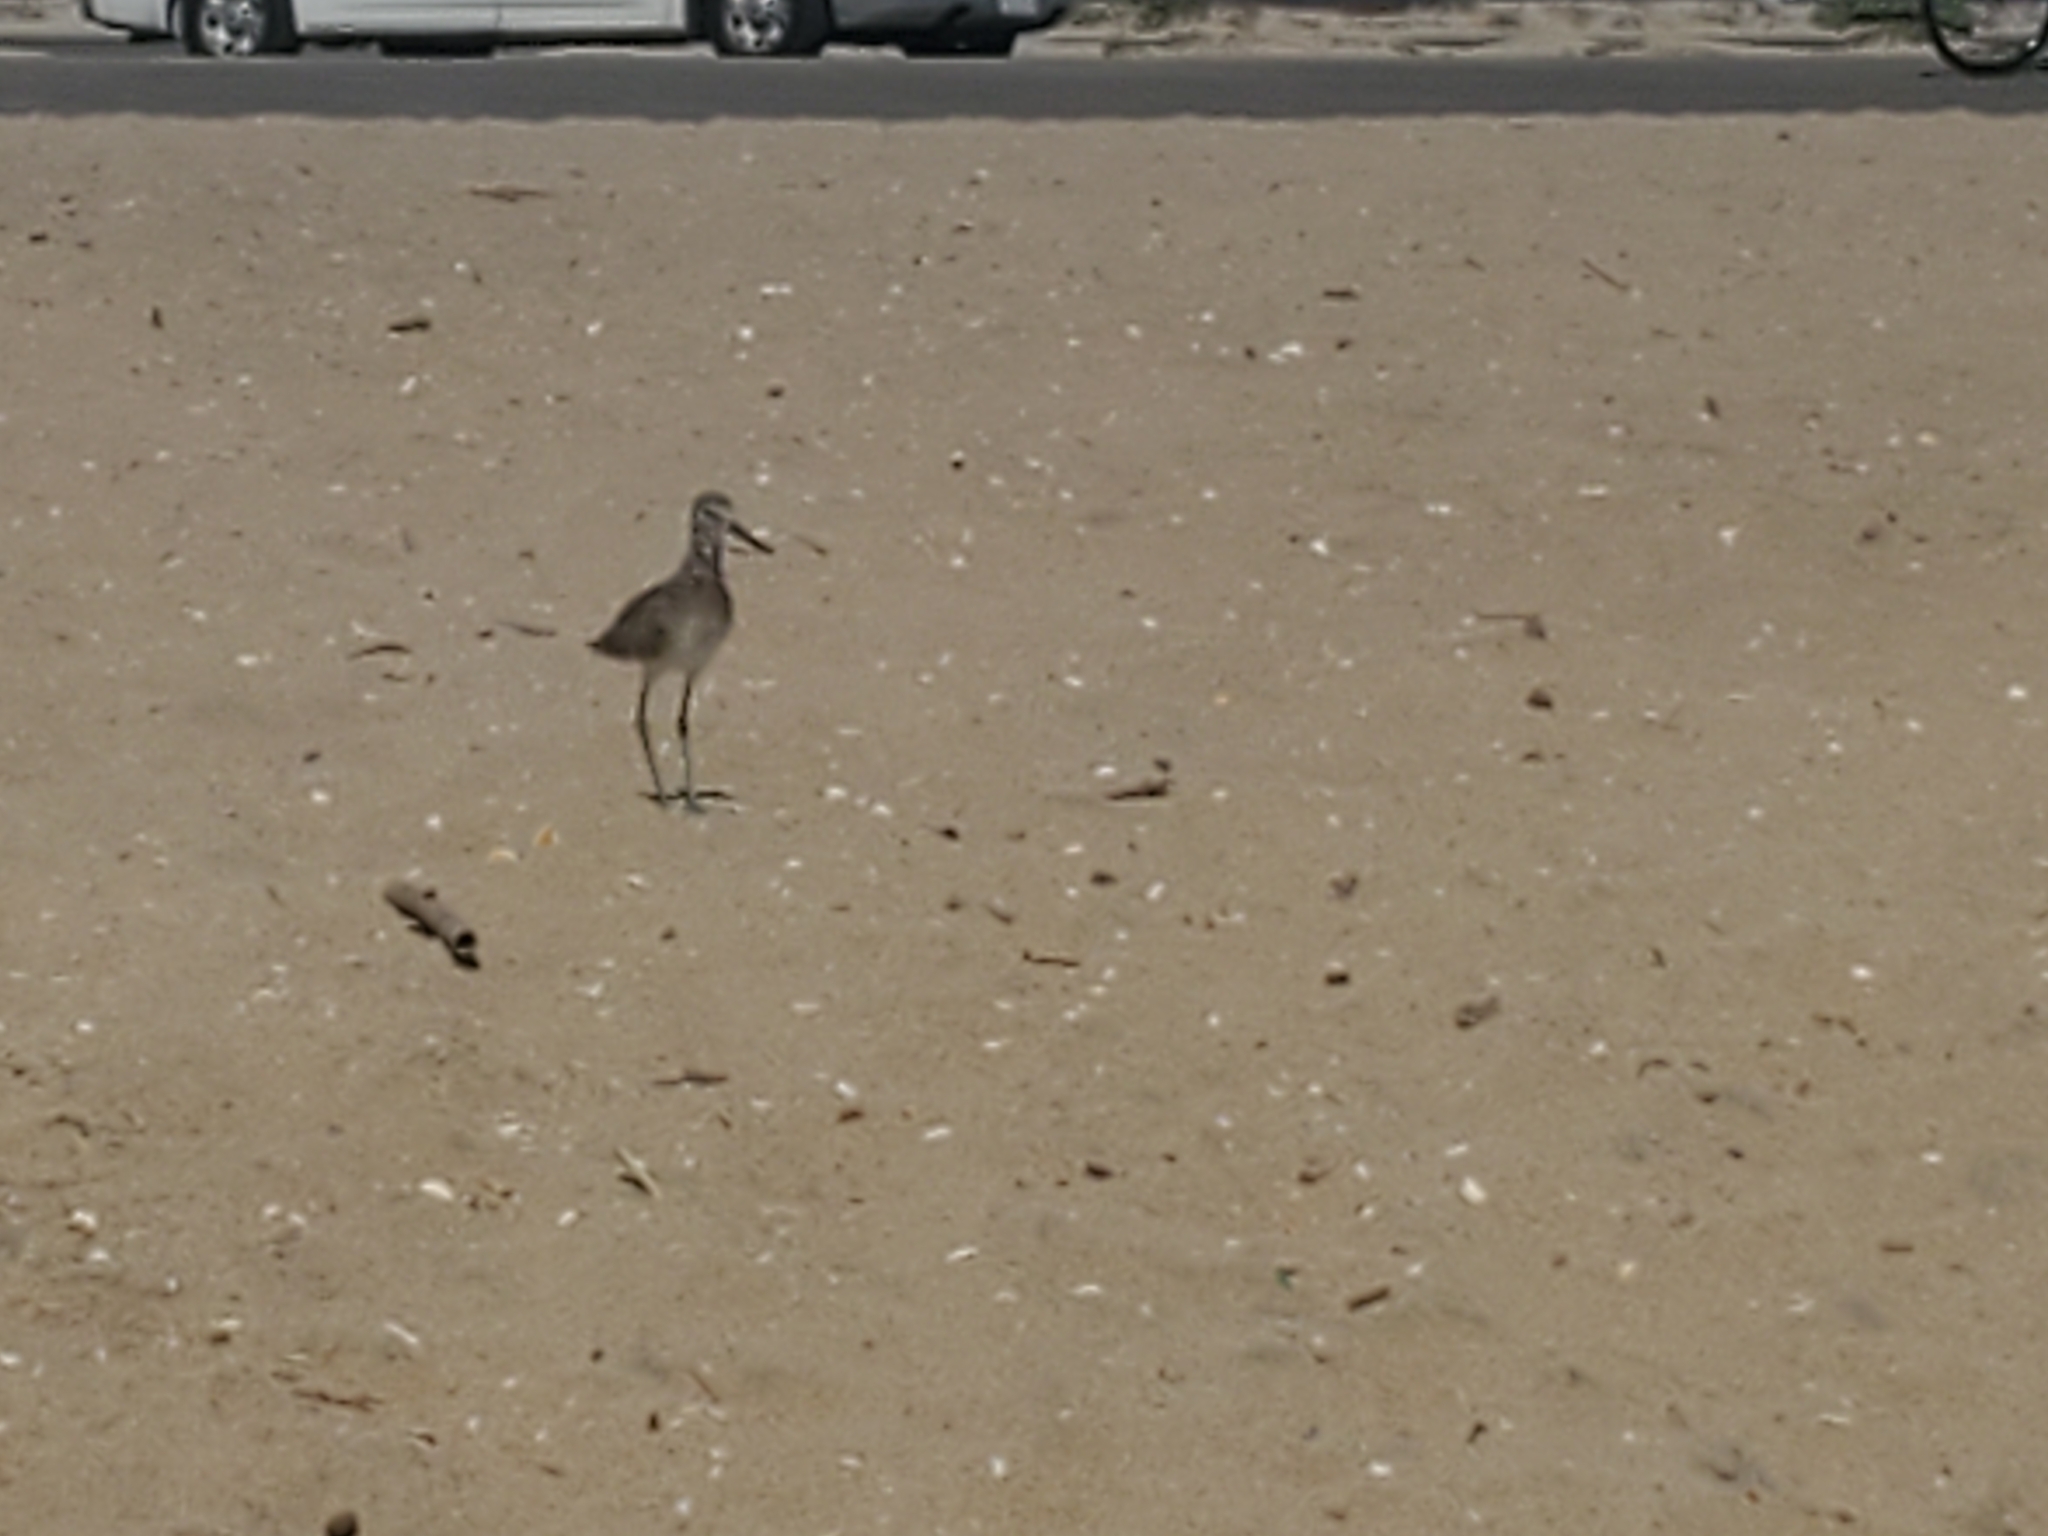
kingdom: Animalia
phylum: Chordata
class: Aves
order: Charadriiformes
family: Scolopacidae
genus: Tringa
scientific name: Tringa semipalmata
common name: Willet
